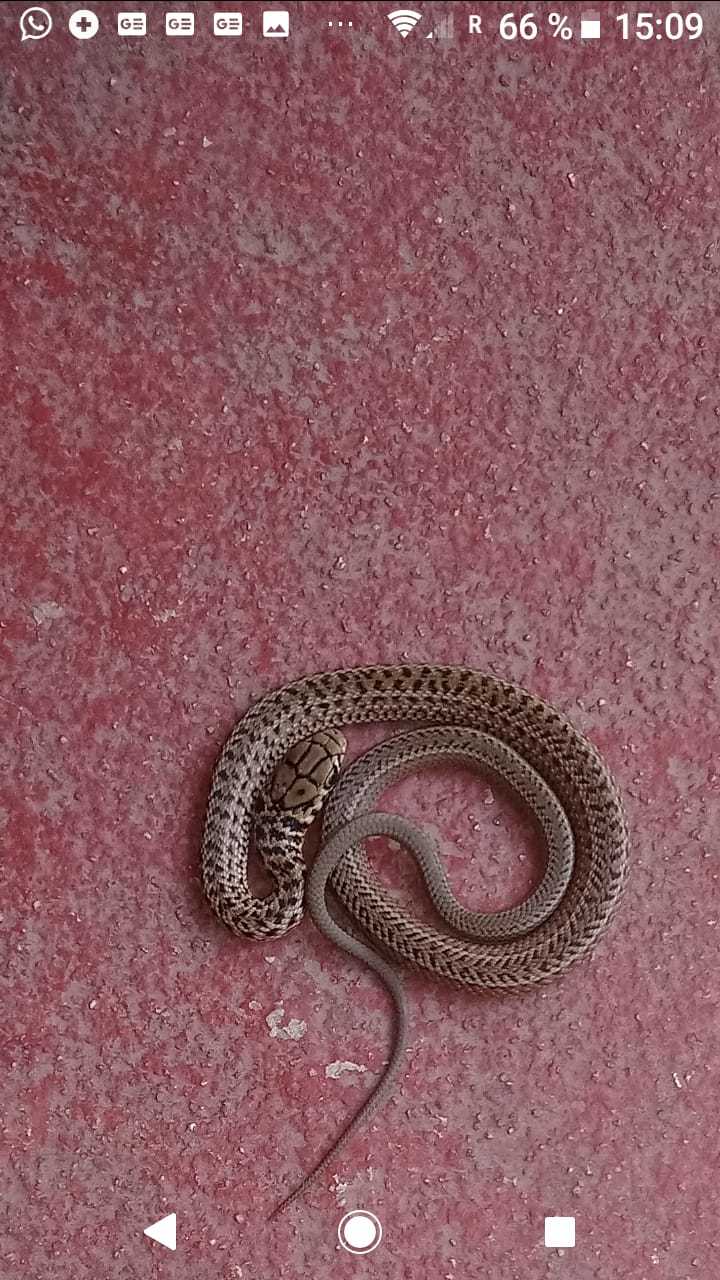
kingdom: Animalia
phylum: Chordata
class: Squamata
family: Colubridae
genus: Philodryas
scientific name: Philodryas patagoniensis
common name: Patagonia green racer
